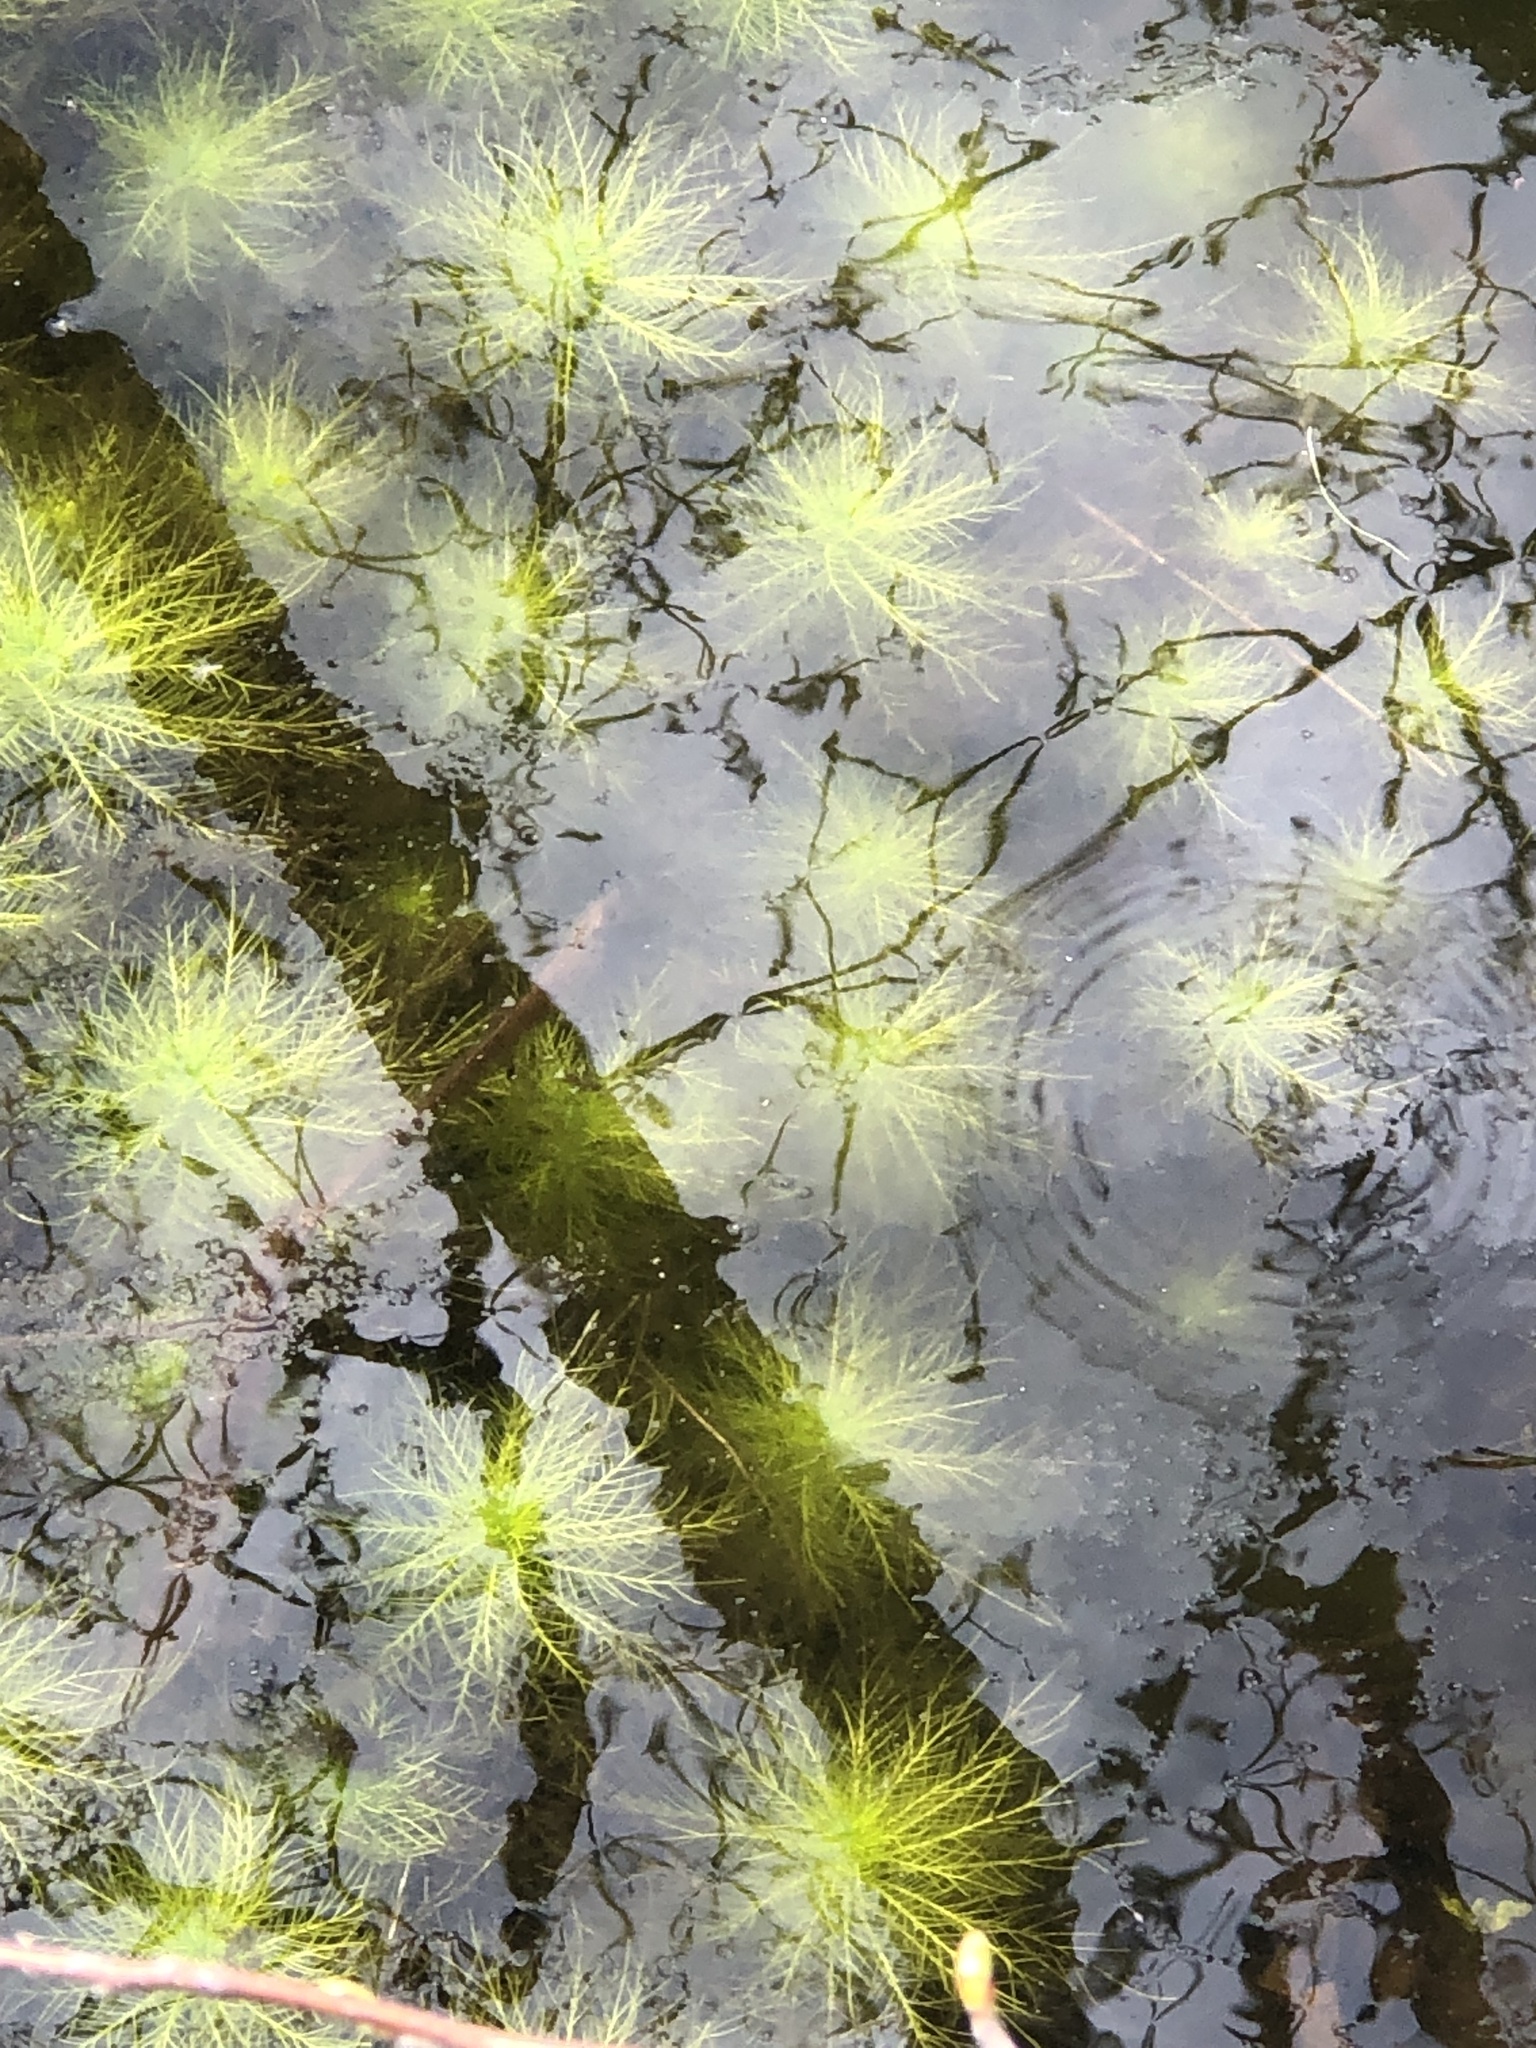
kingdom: Plantae
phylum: Tracheophyta
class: Magnoliopsida
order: Ericales
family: Primulaceae
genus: Hottonia
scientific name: Hottonia inflata
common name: American featherfoil
